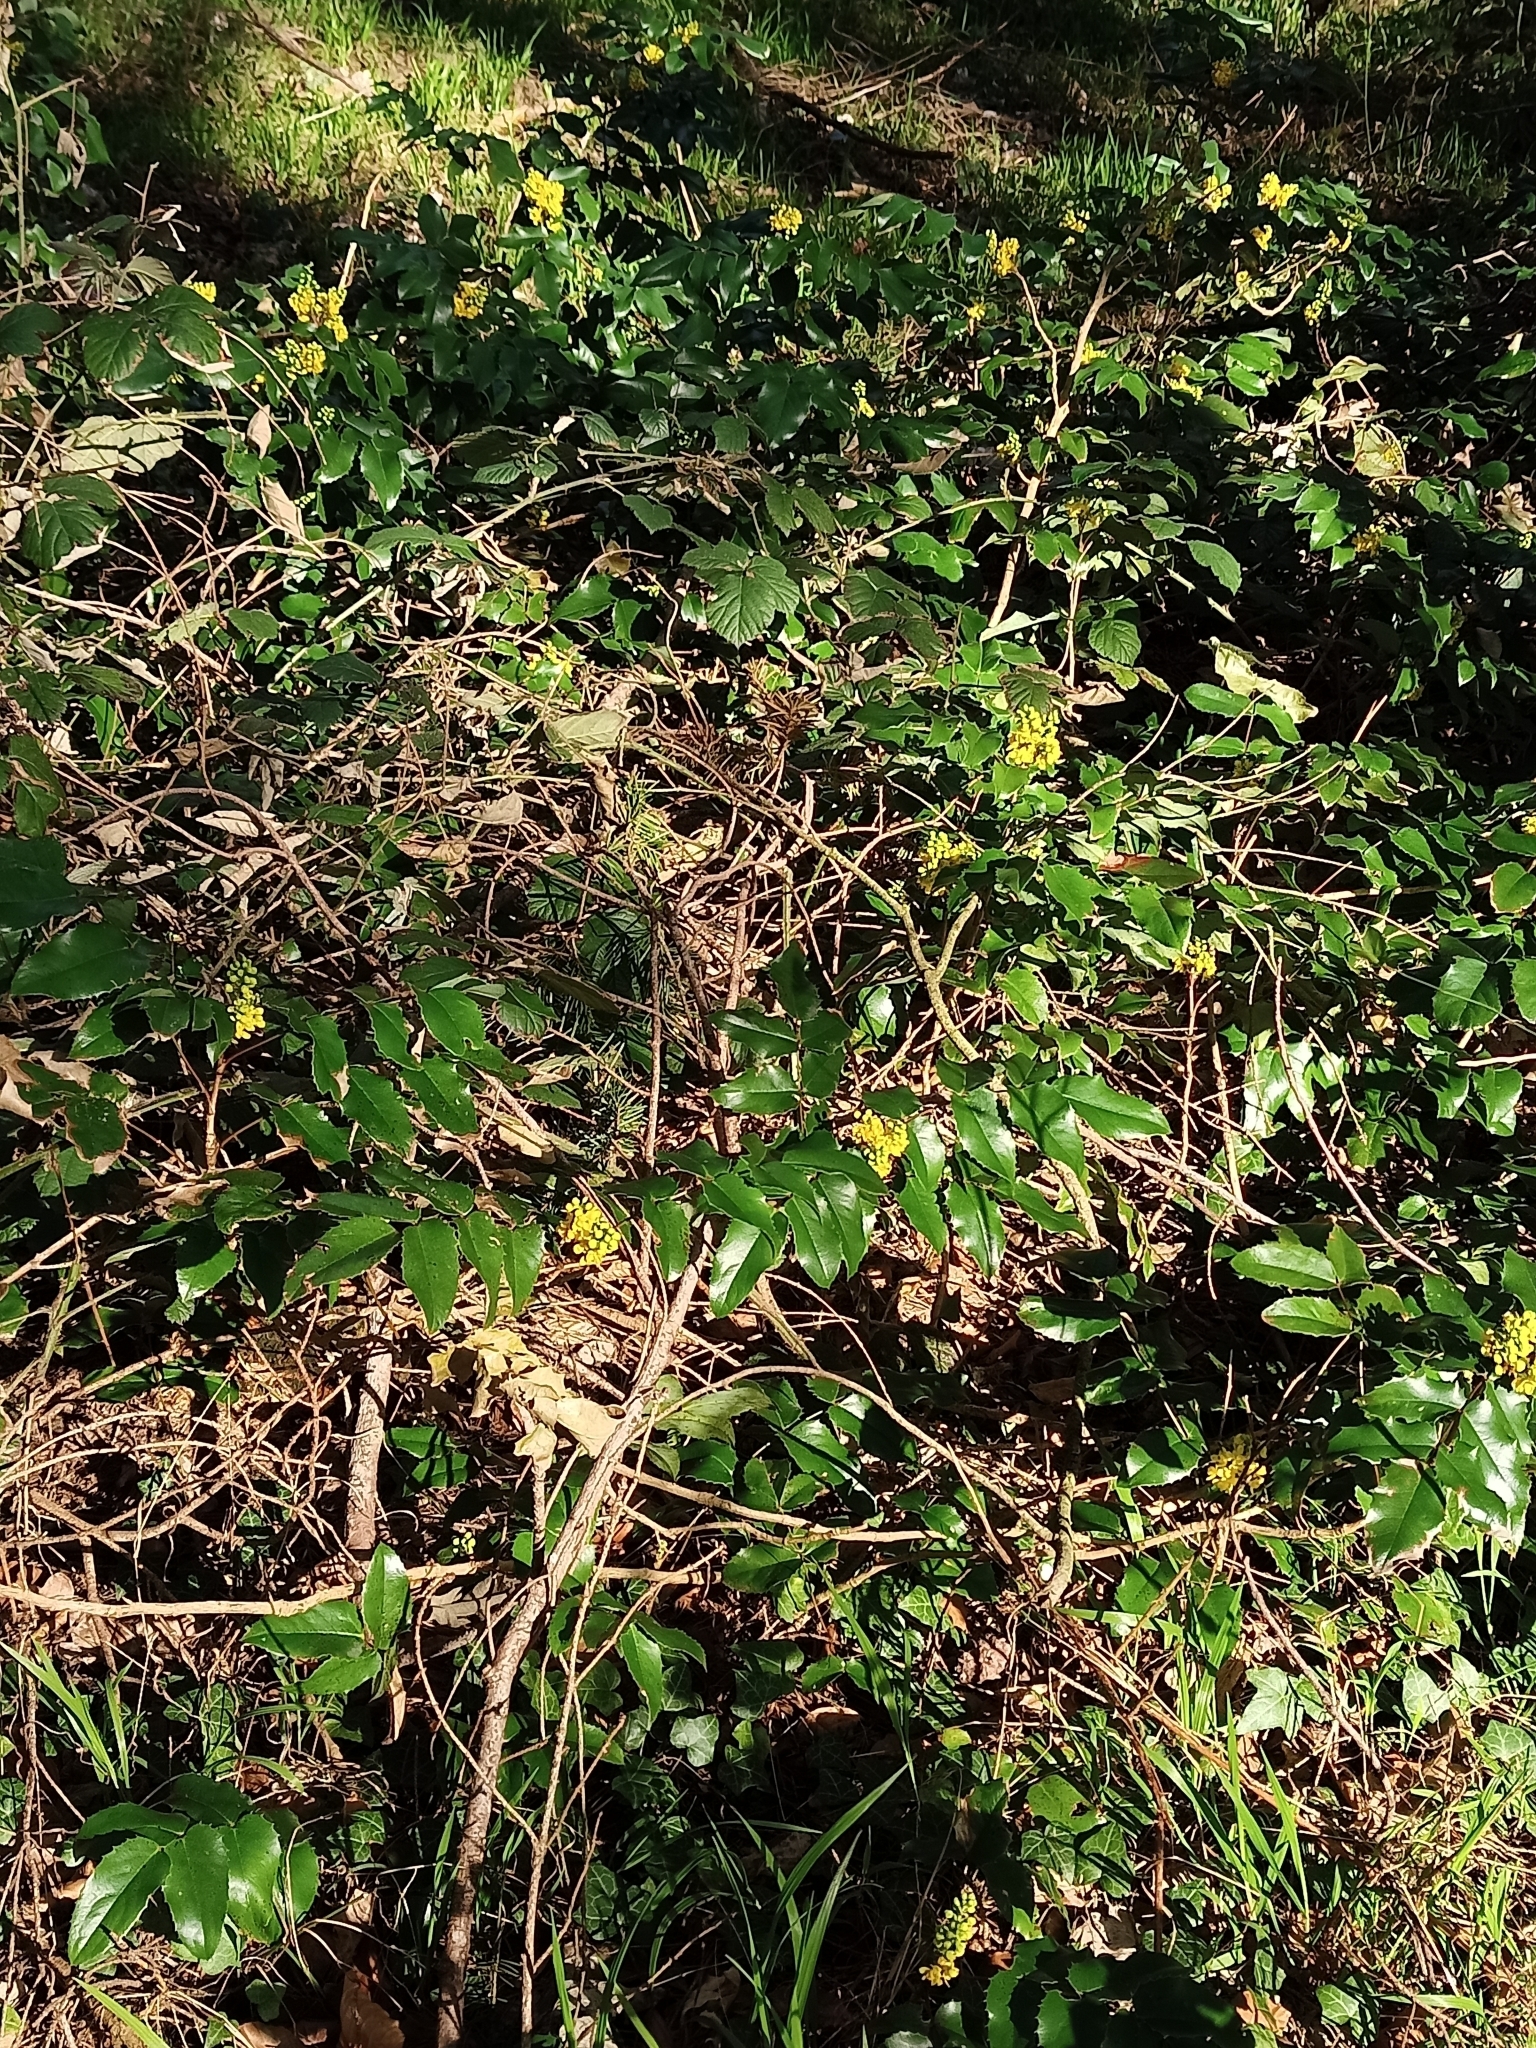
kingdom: Plantae
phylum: Tracheophyta
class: Magnoliopsida
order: Ranunculales
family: Berberidaceae
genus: Mahonia
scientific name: Mahonia aquifolium
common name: Oregon-grape
